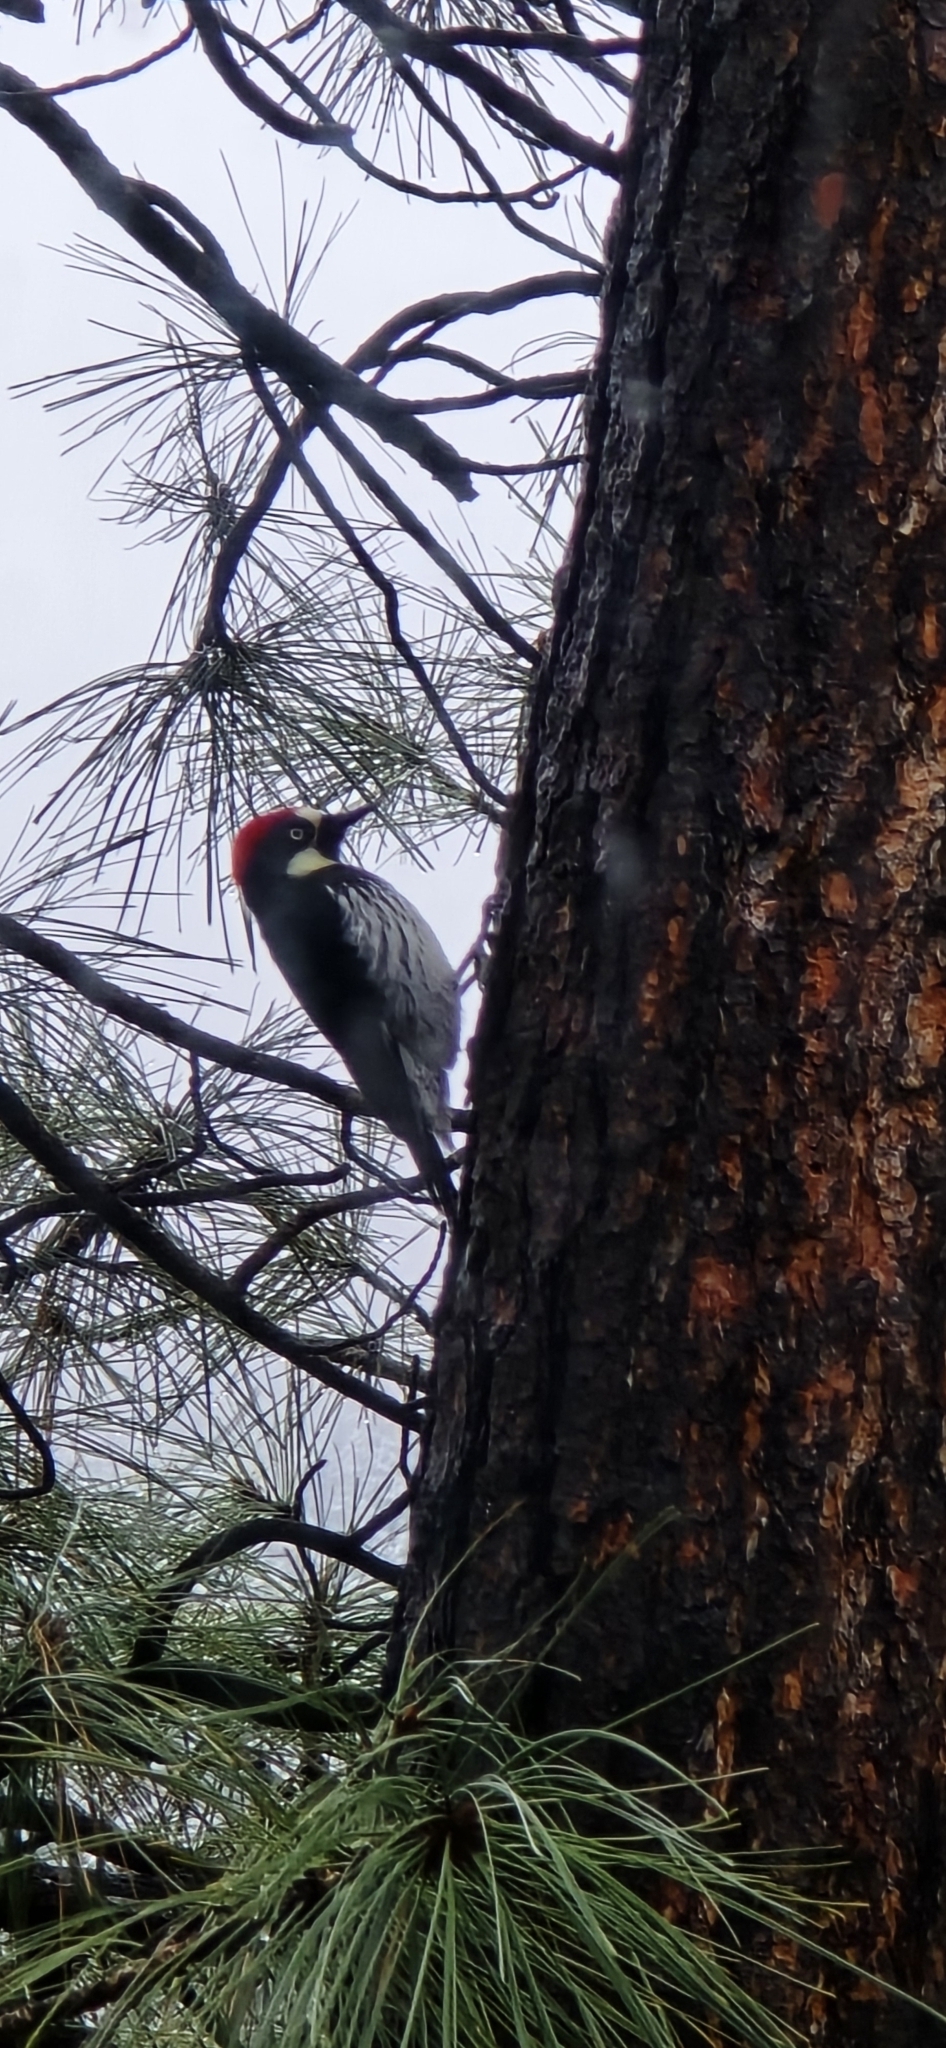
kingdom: Animalia
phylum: Chordata
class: Aves
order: Piciformes
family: Picidae
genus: Melanerpes
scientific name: Melanerpes formicivorus
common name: Acorn woodpecker
